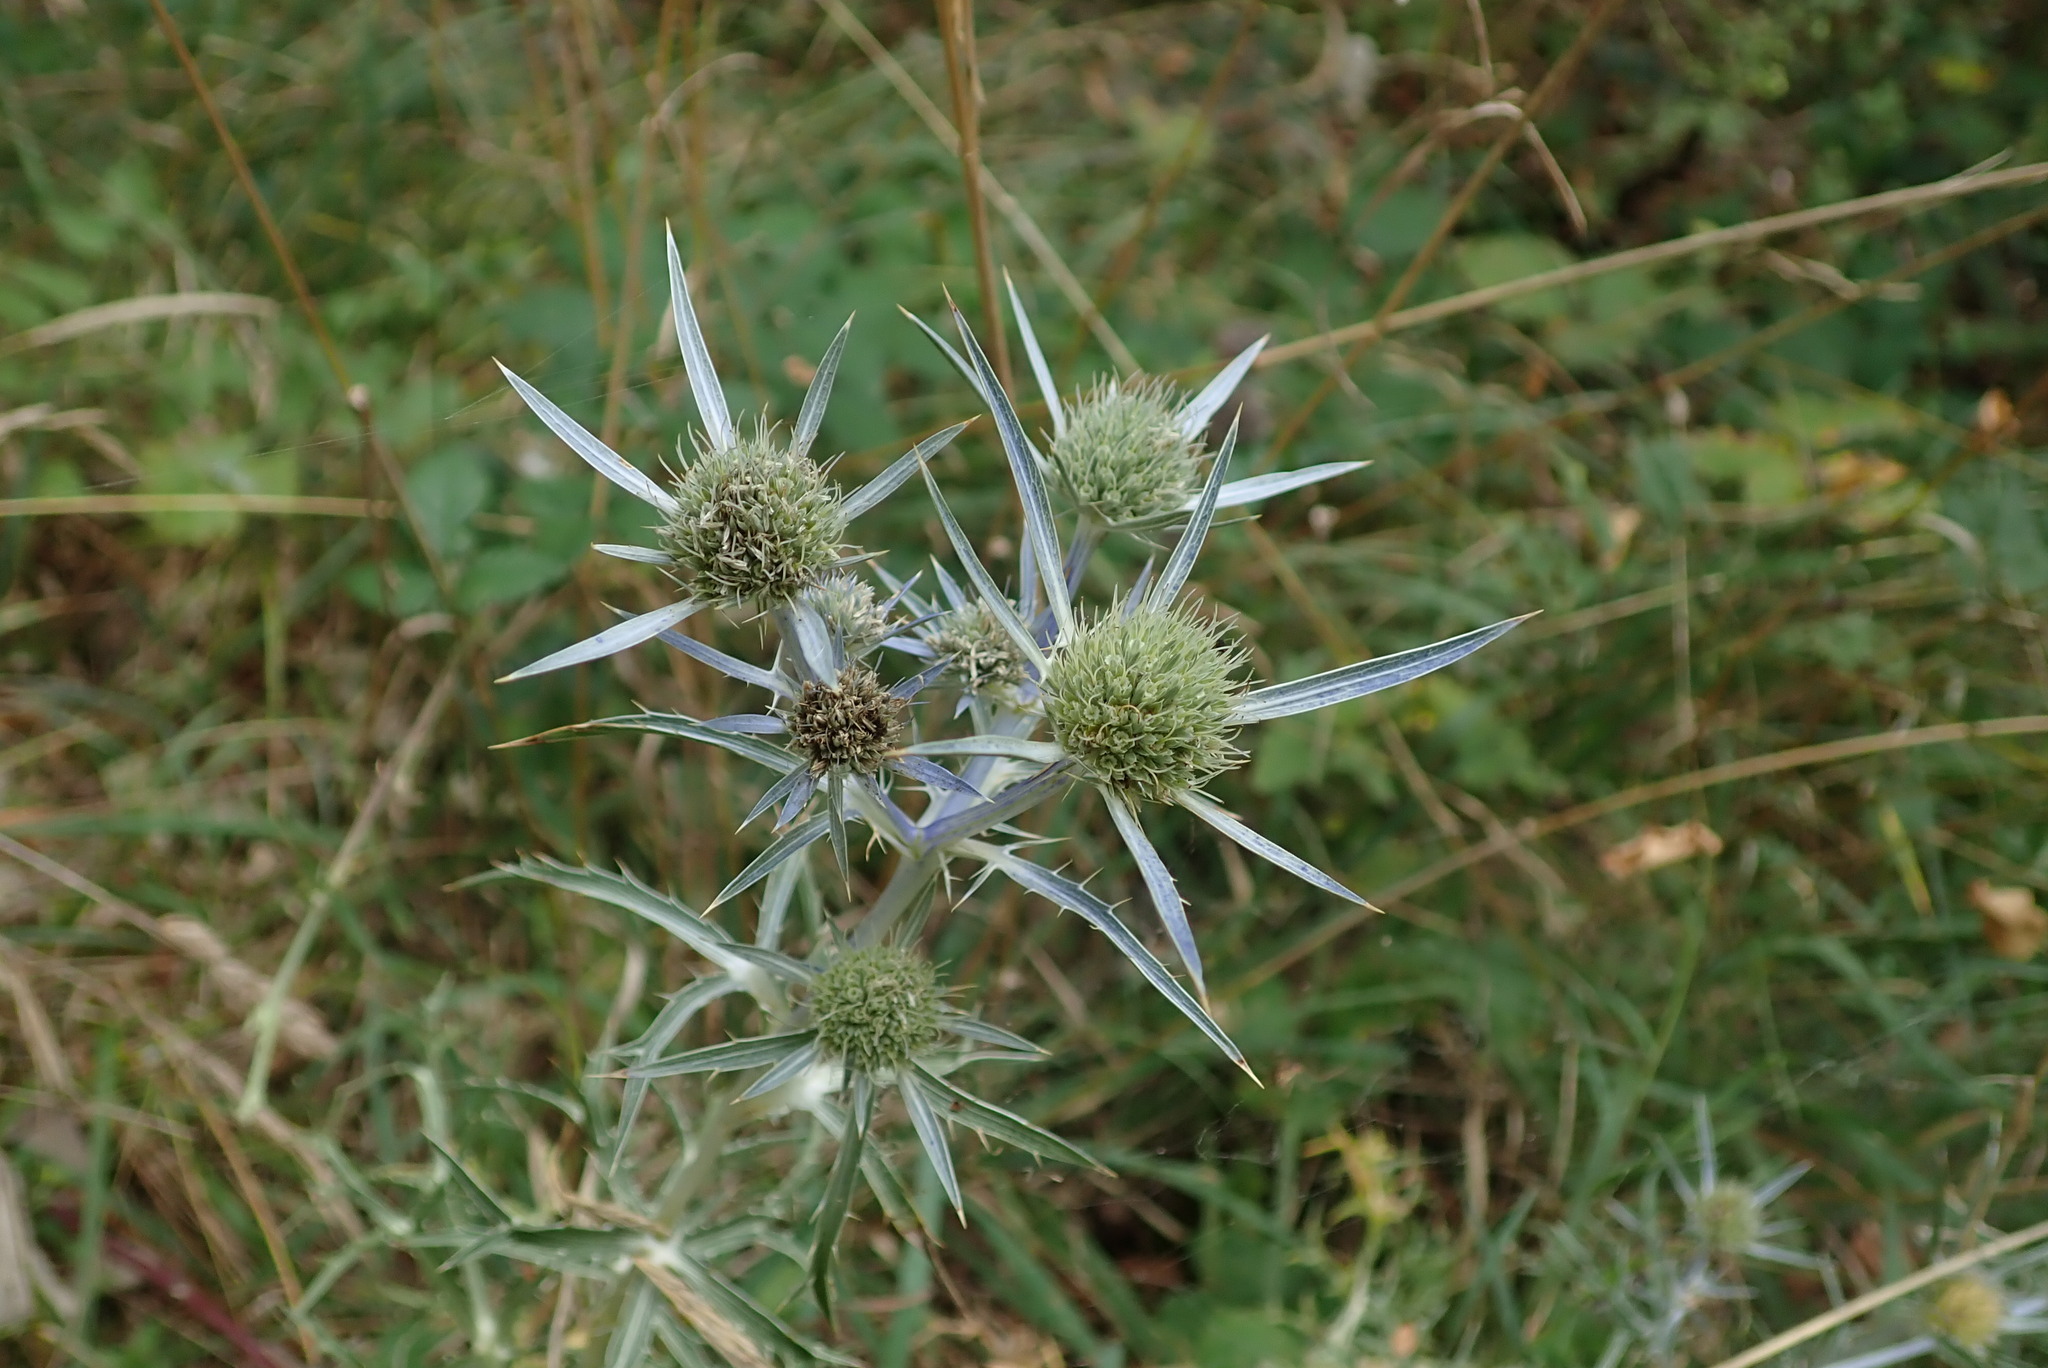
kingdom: Plantae
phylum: Tracheophyta
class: Magnoliopsida
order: Apiales
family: Apiaceae
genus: Eryngium
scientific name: Eryngium amethystinum
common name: Amethyst eryngo
